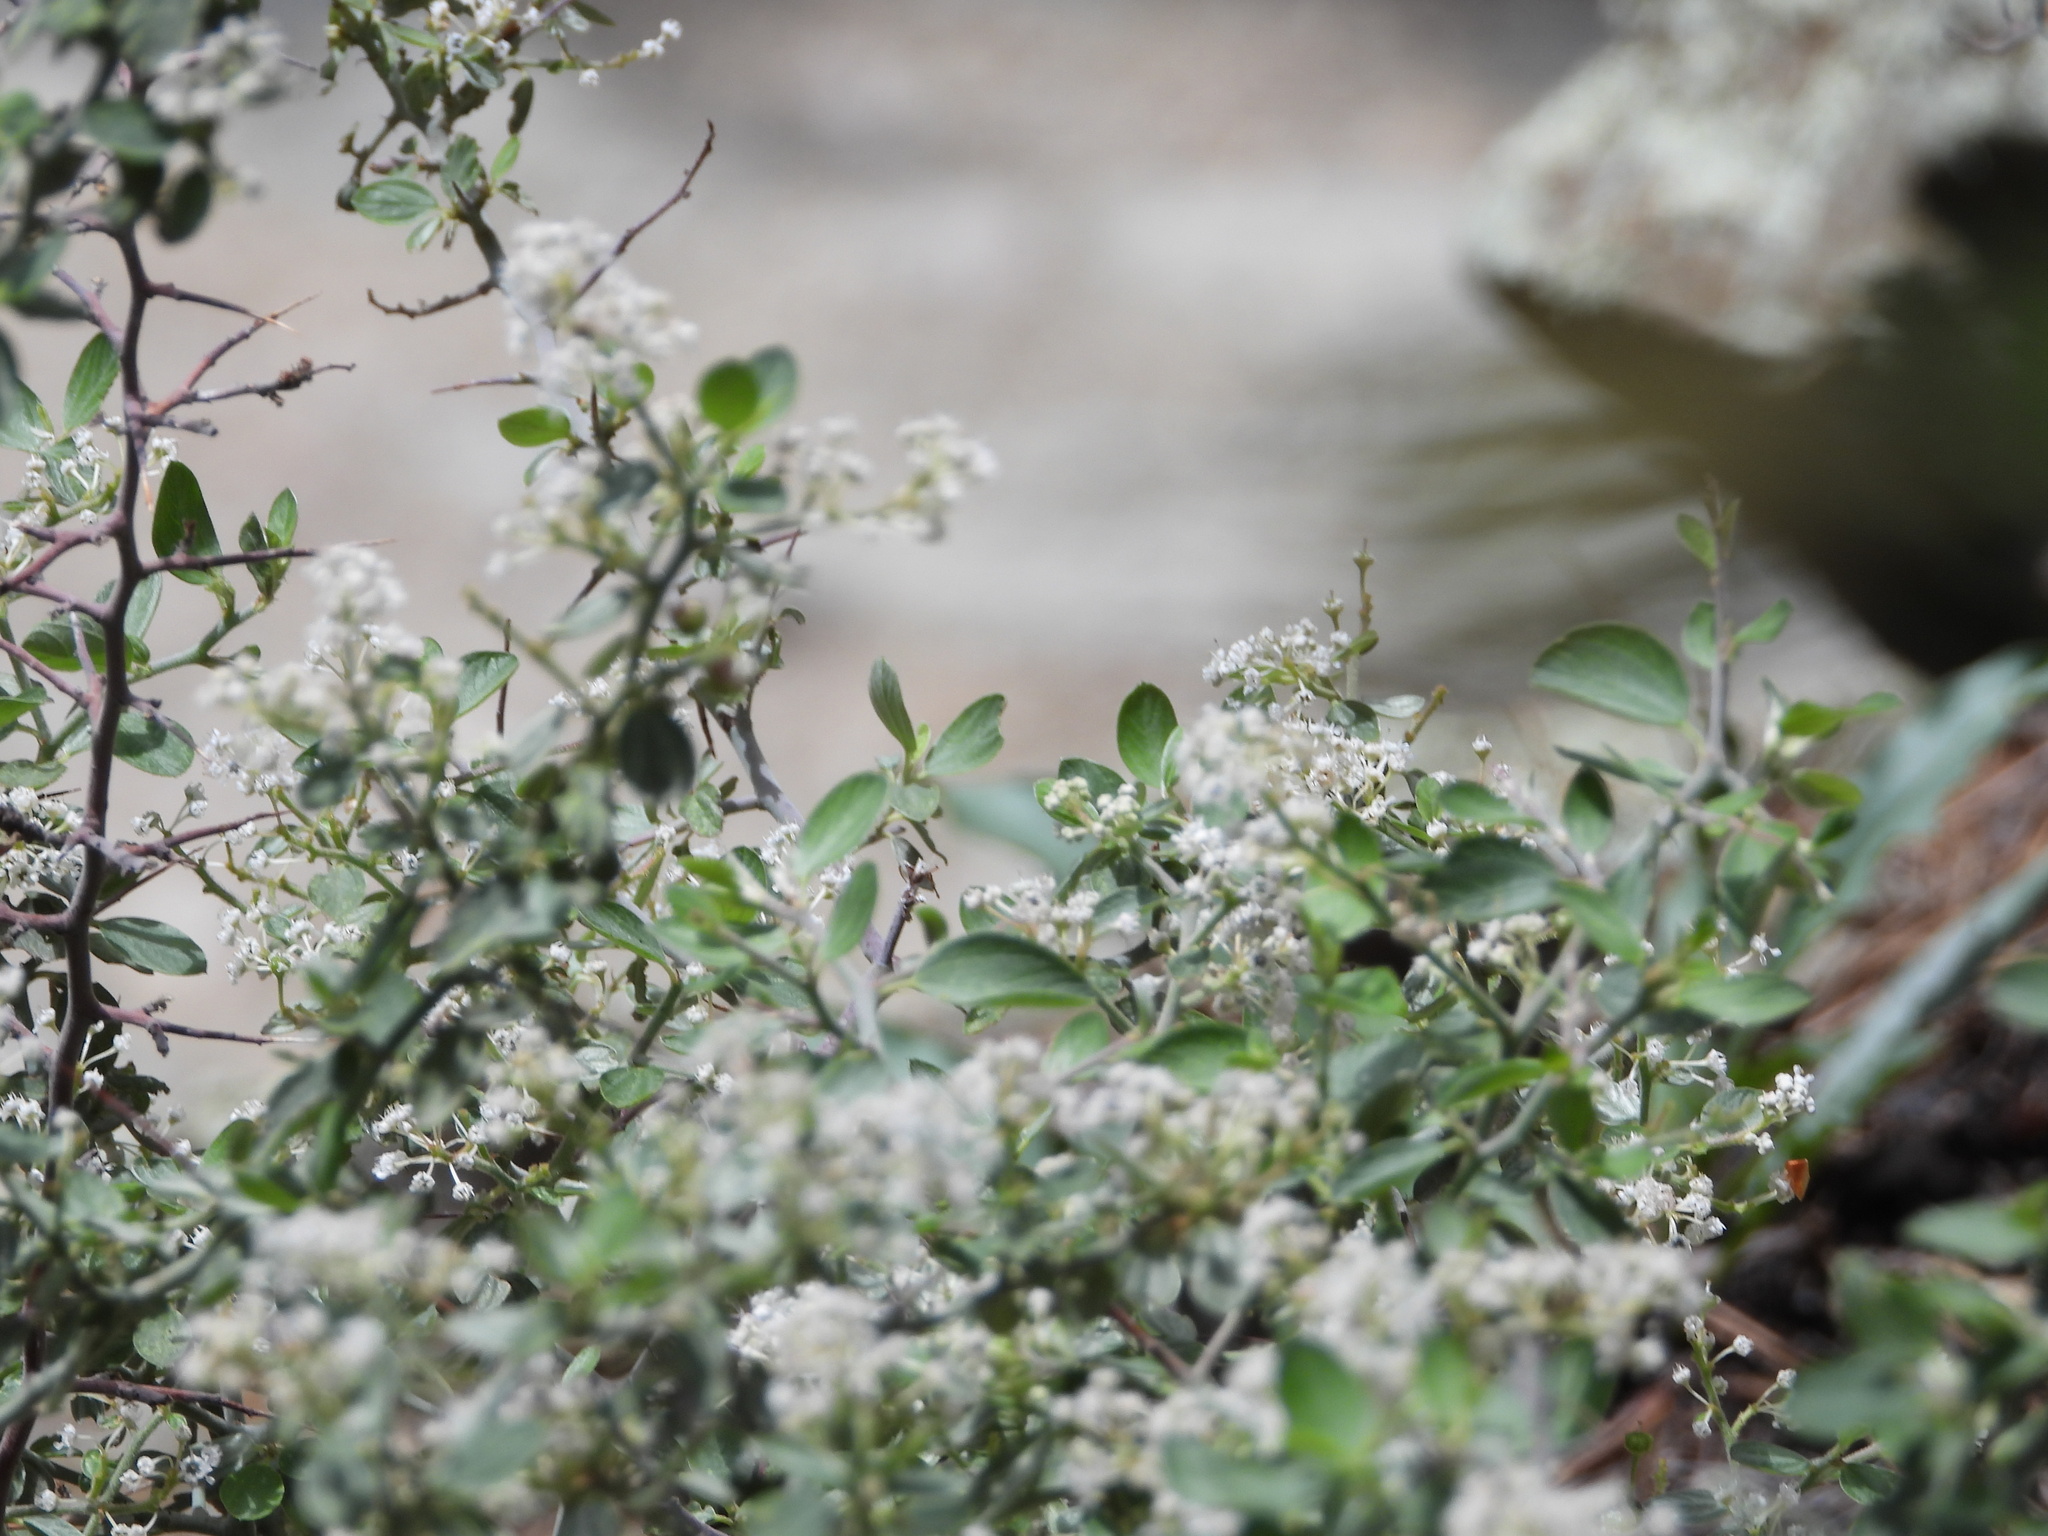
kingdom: Plantae
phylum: Tracheophyta
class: Magnoliopsida
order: Rosales
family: Rhamnaceae
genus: Ceanothus
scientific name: Ceanothus fendleri
